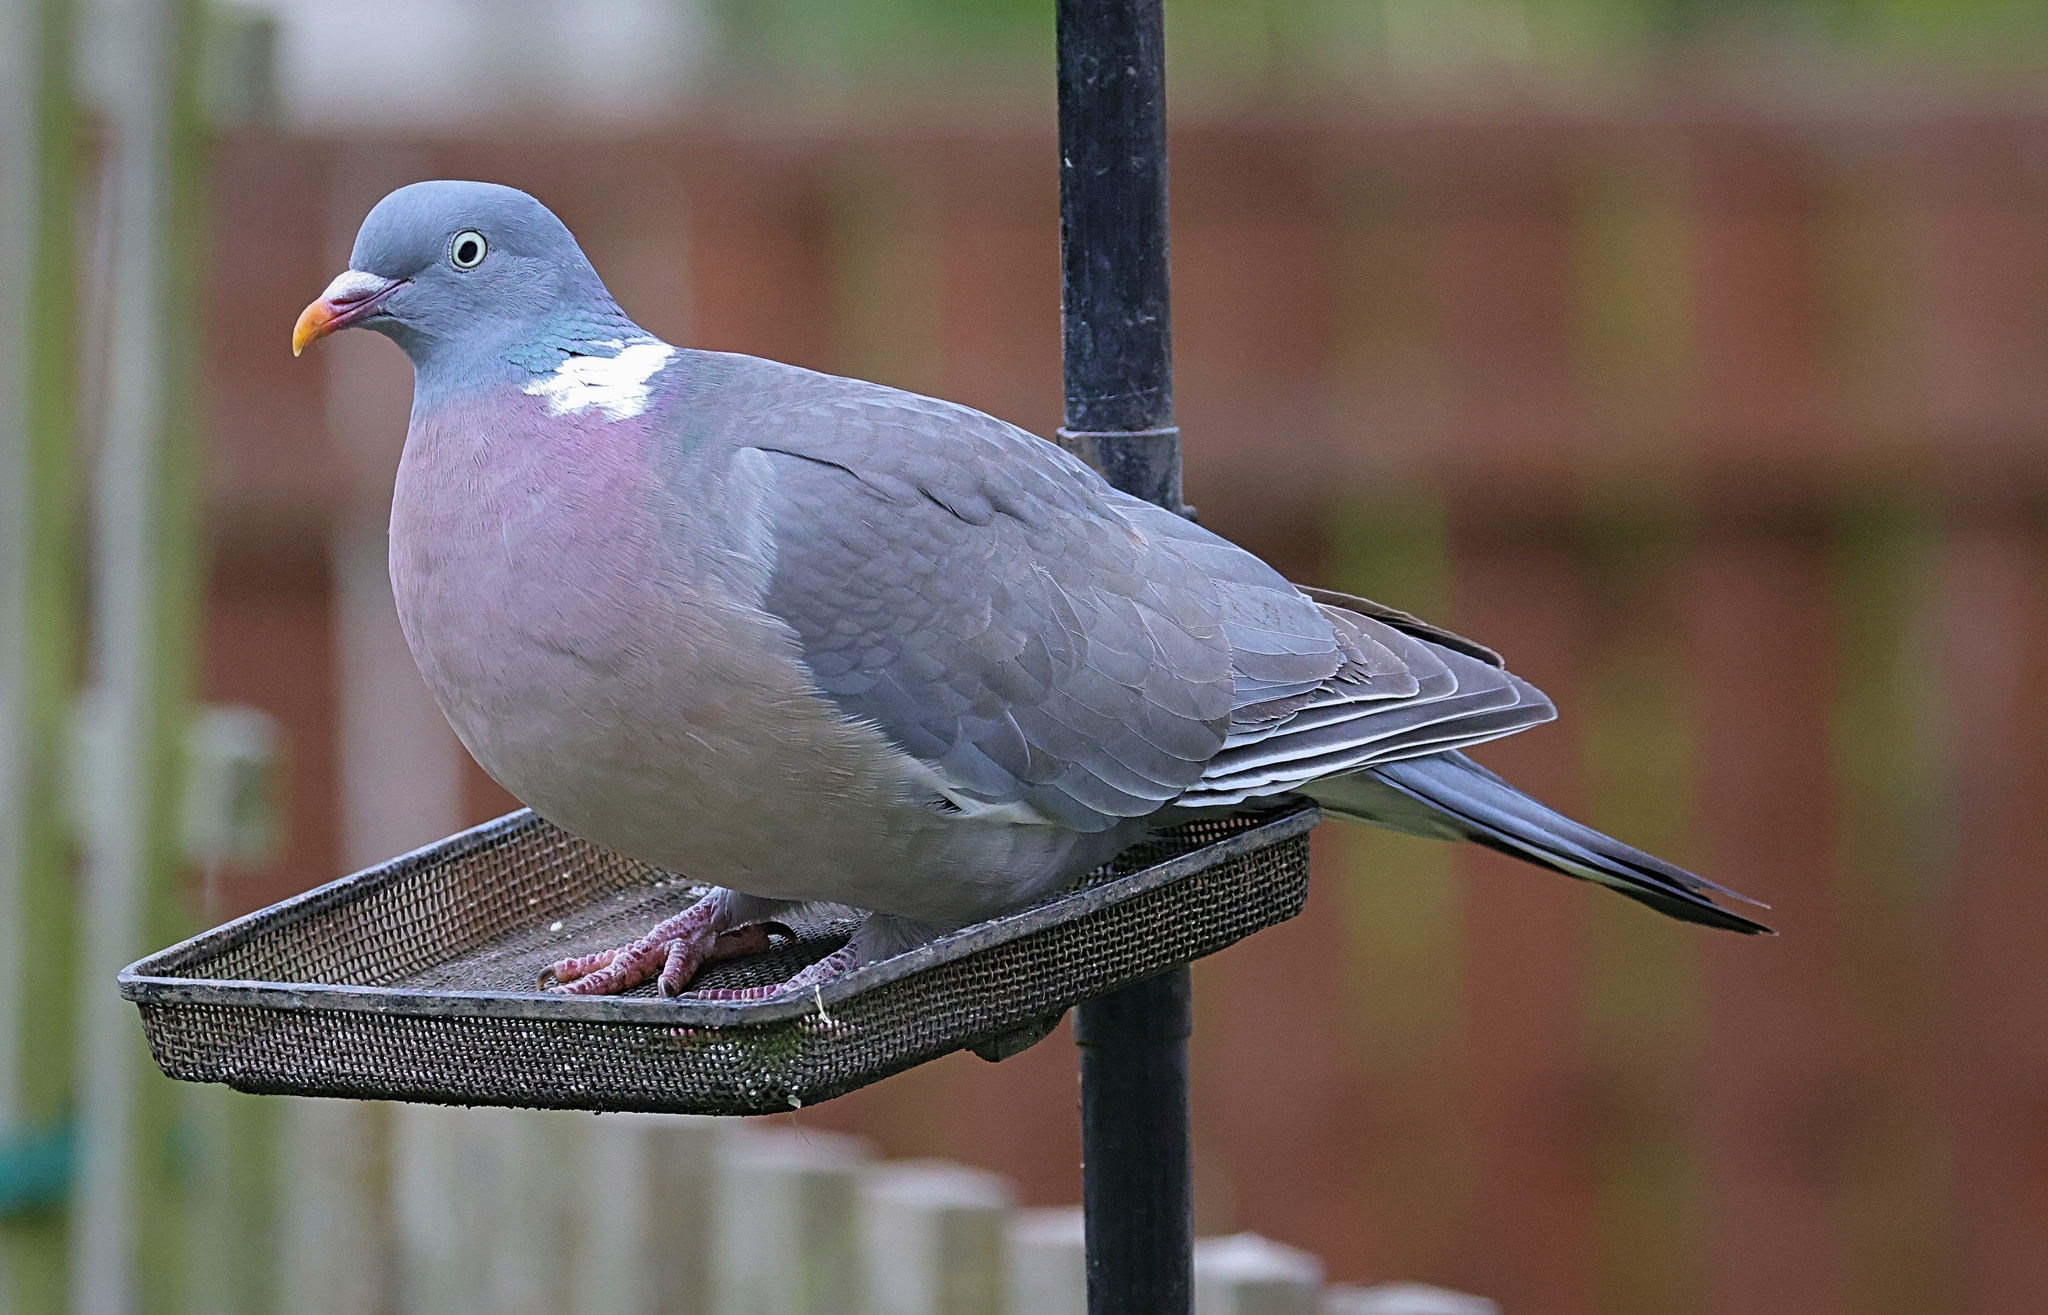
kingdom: Animalia
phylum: Chordata
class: Aves
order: Columbiformes
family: Columbidae
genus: Columba
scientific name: Columba palumbus
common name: Common wood pigeon
